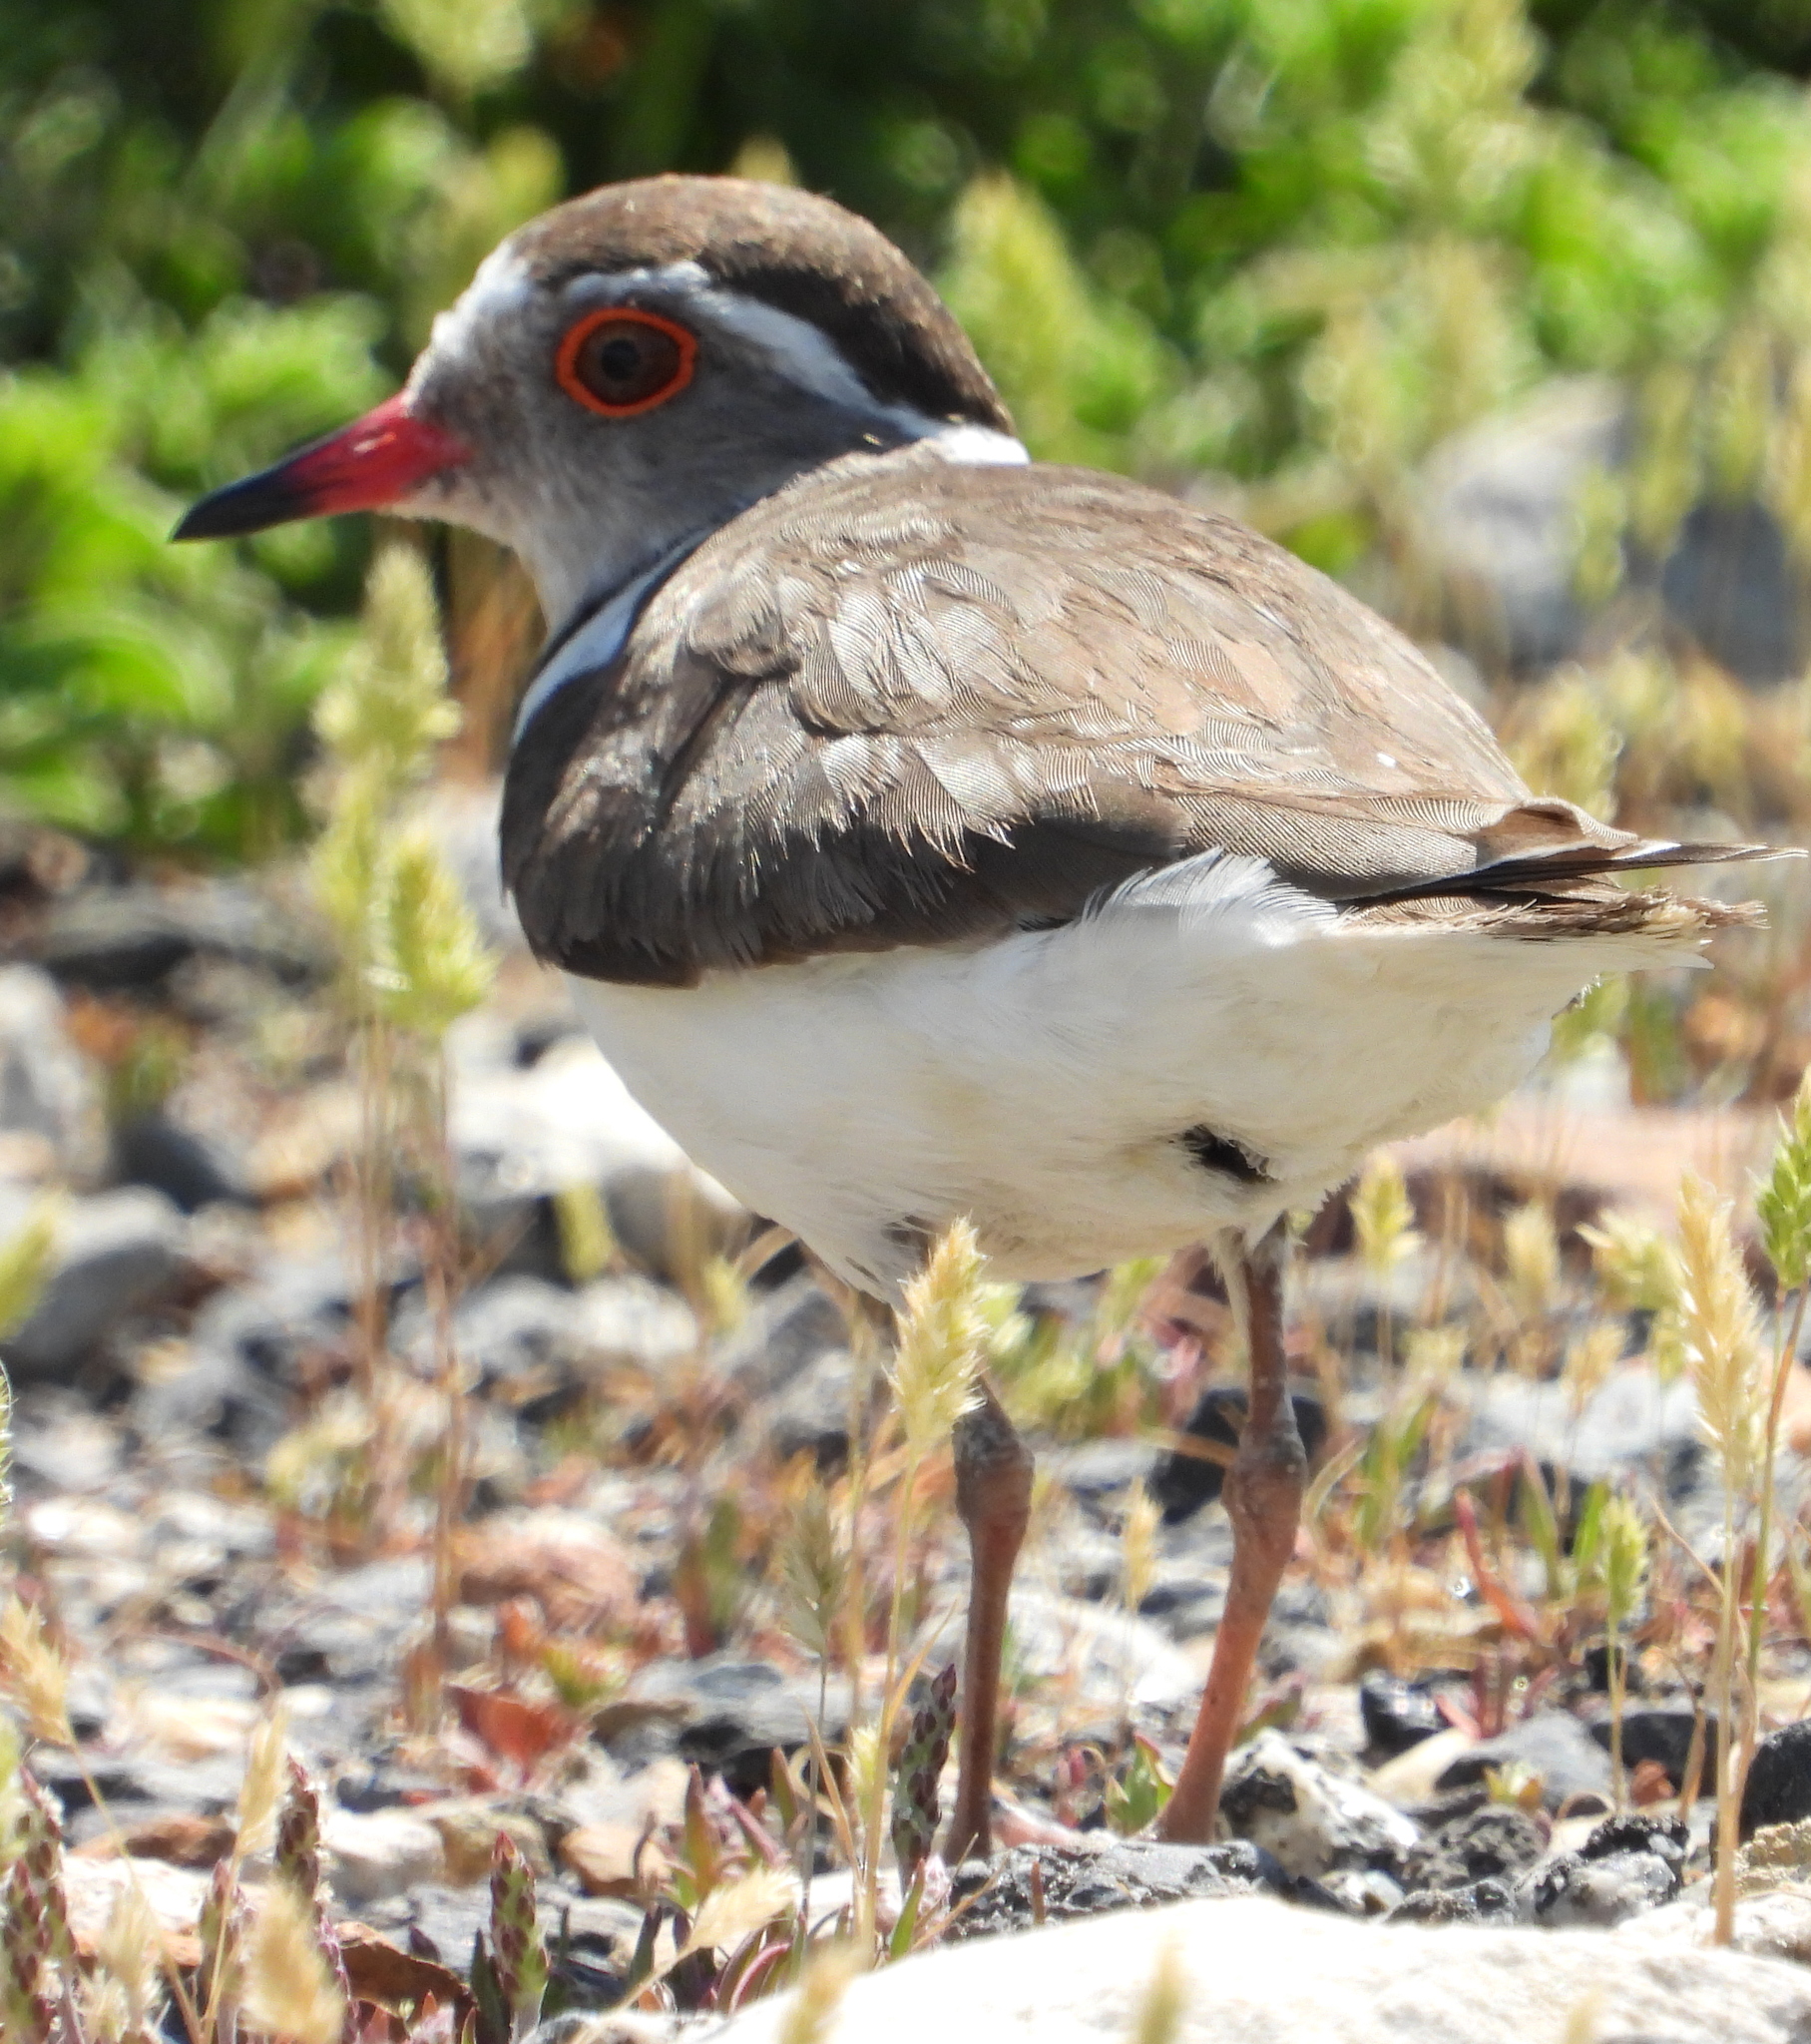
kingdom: Animalia
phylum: Chordata
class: Aves
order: Charadriiformes
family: Charadriidae
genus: Charadrius
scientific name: Charadrius tricollaris
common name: Three-banded plover
